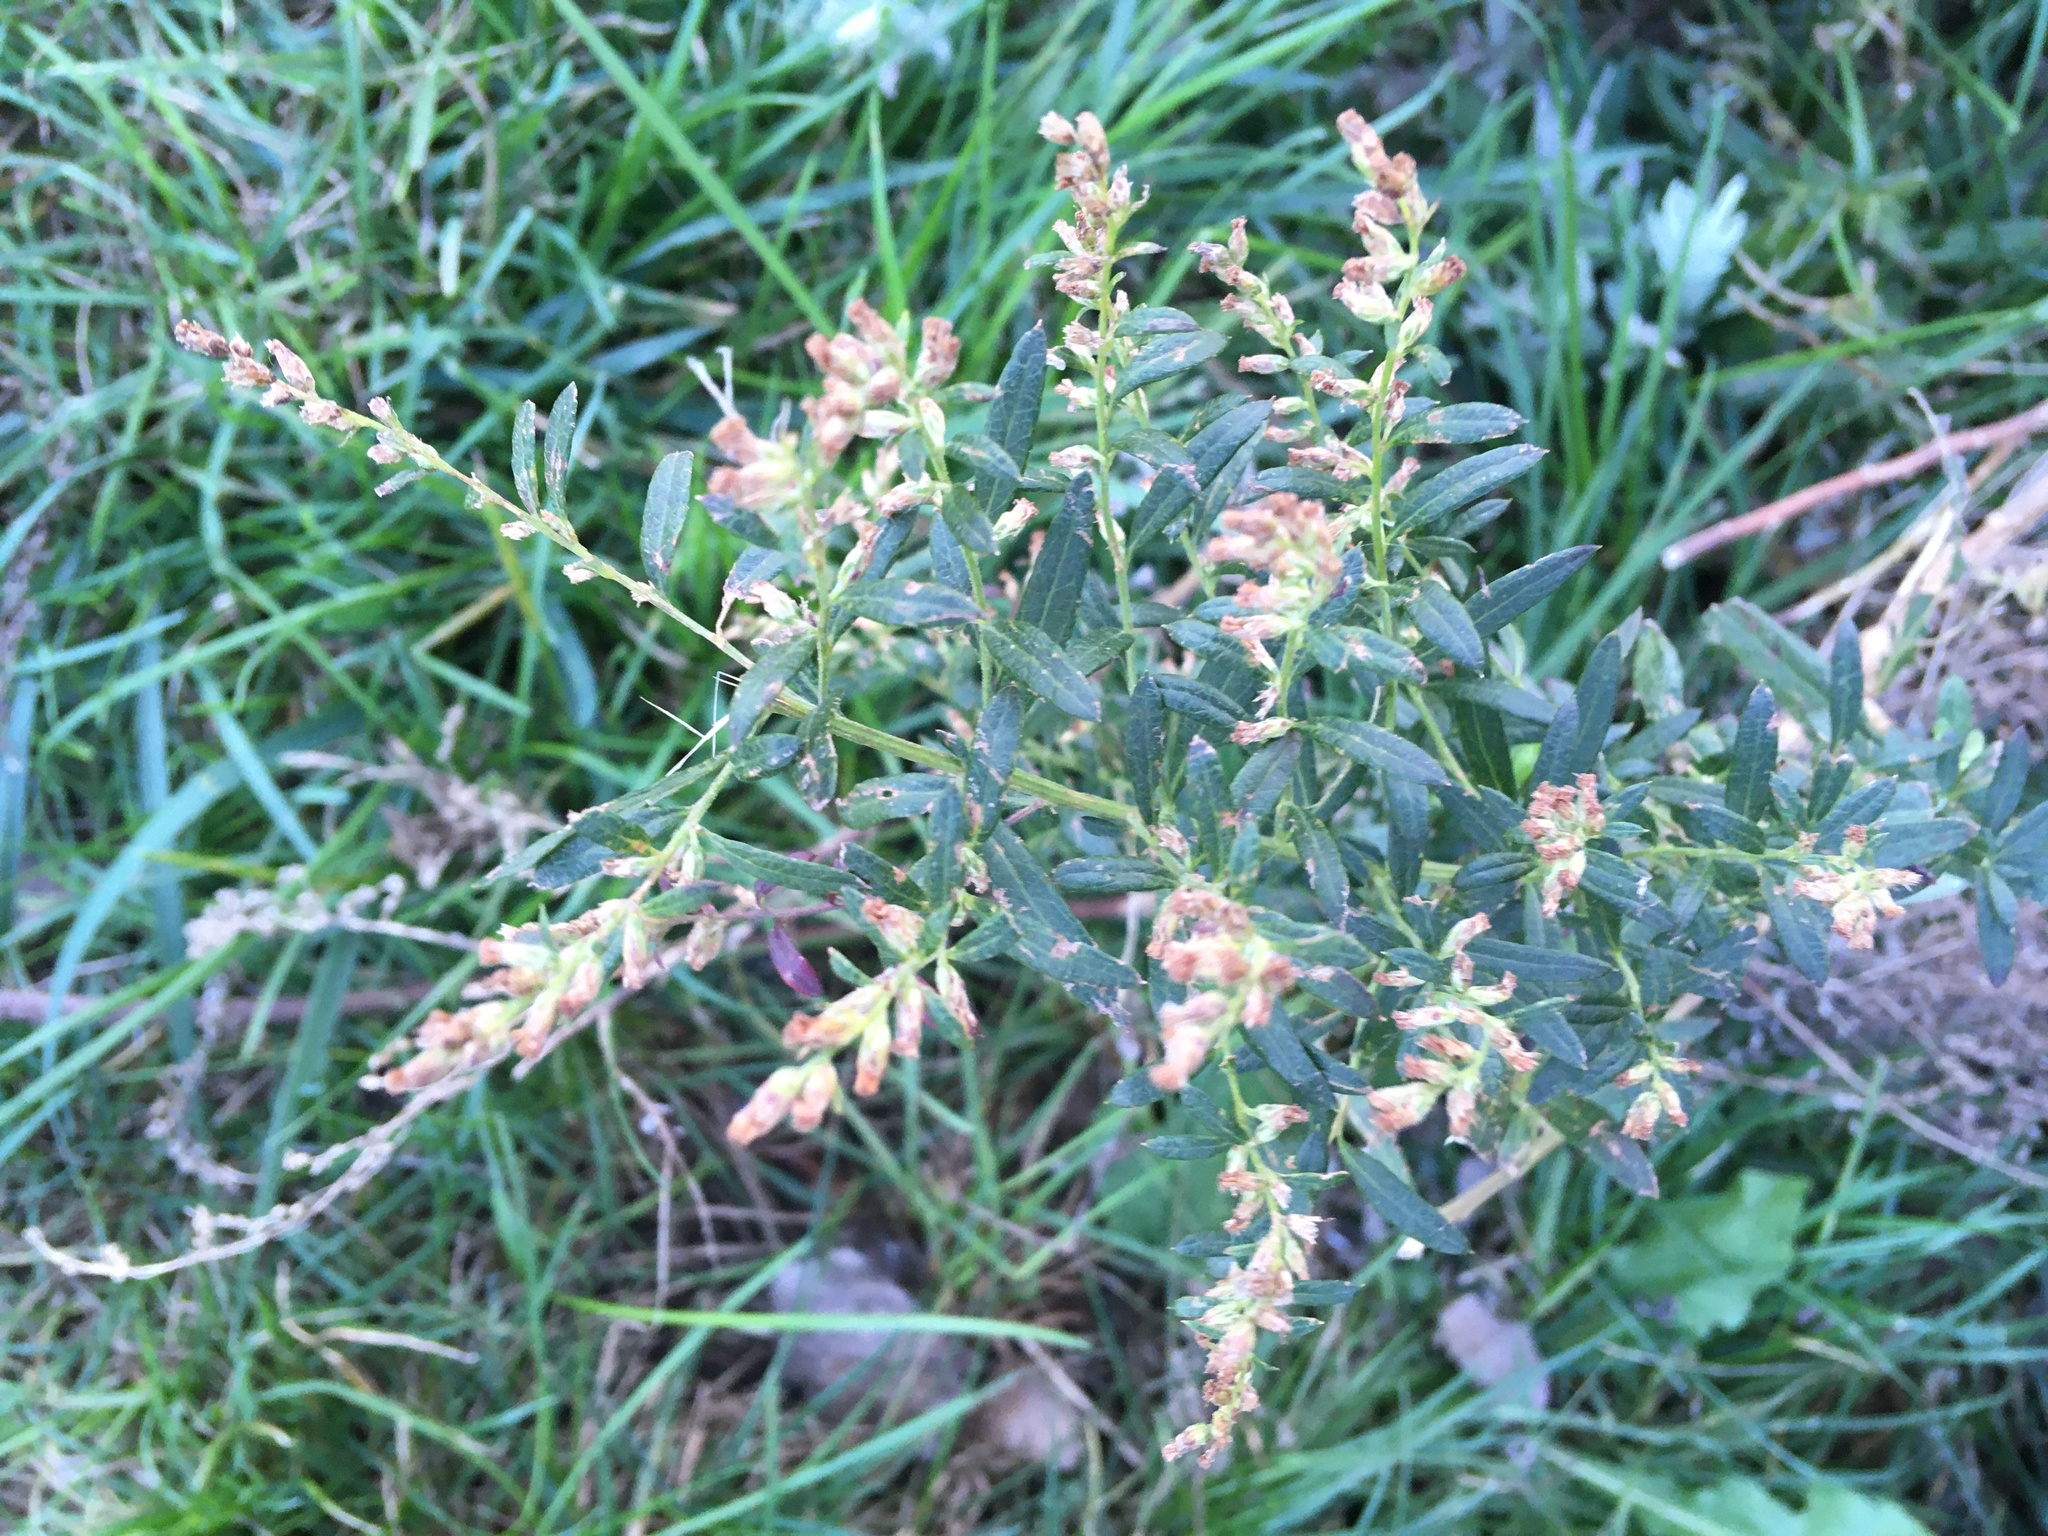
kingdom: Plantae
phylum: Tracheophyta
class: Magnoliopsida
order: Asterales
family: Asteraceae
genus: Artemisia
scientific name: Artemisia vulgaris
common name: Mugwort
